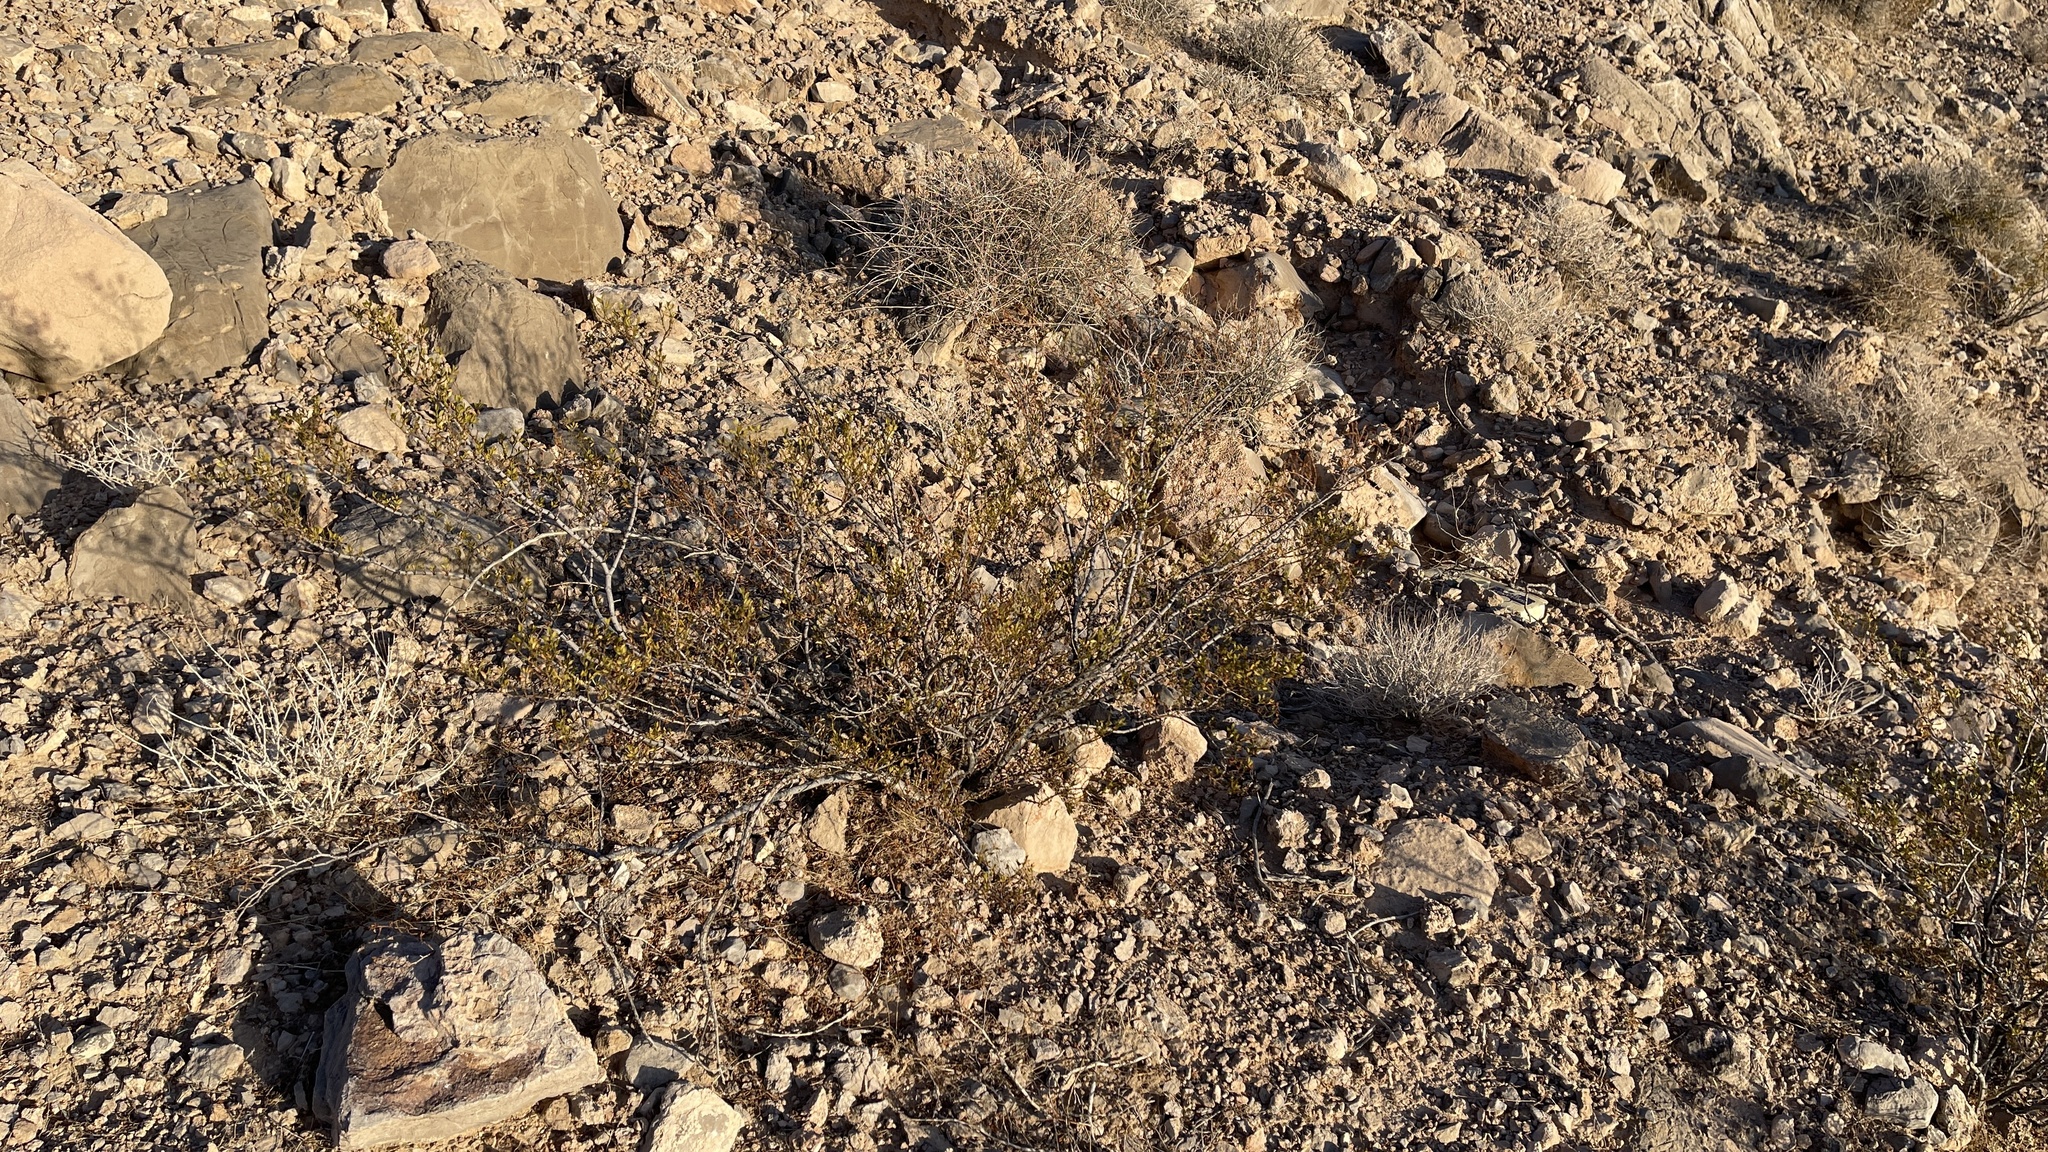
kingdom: Plantae
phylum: Tracheophyta
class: Magnoliopsida
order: Zygophyllales
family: Zygophyllaceae
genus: Larrea
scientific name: Larrea tridentata
